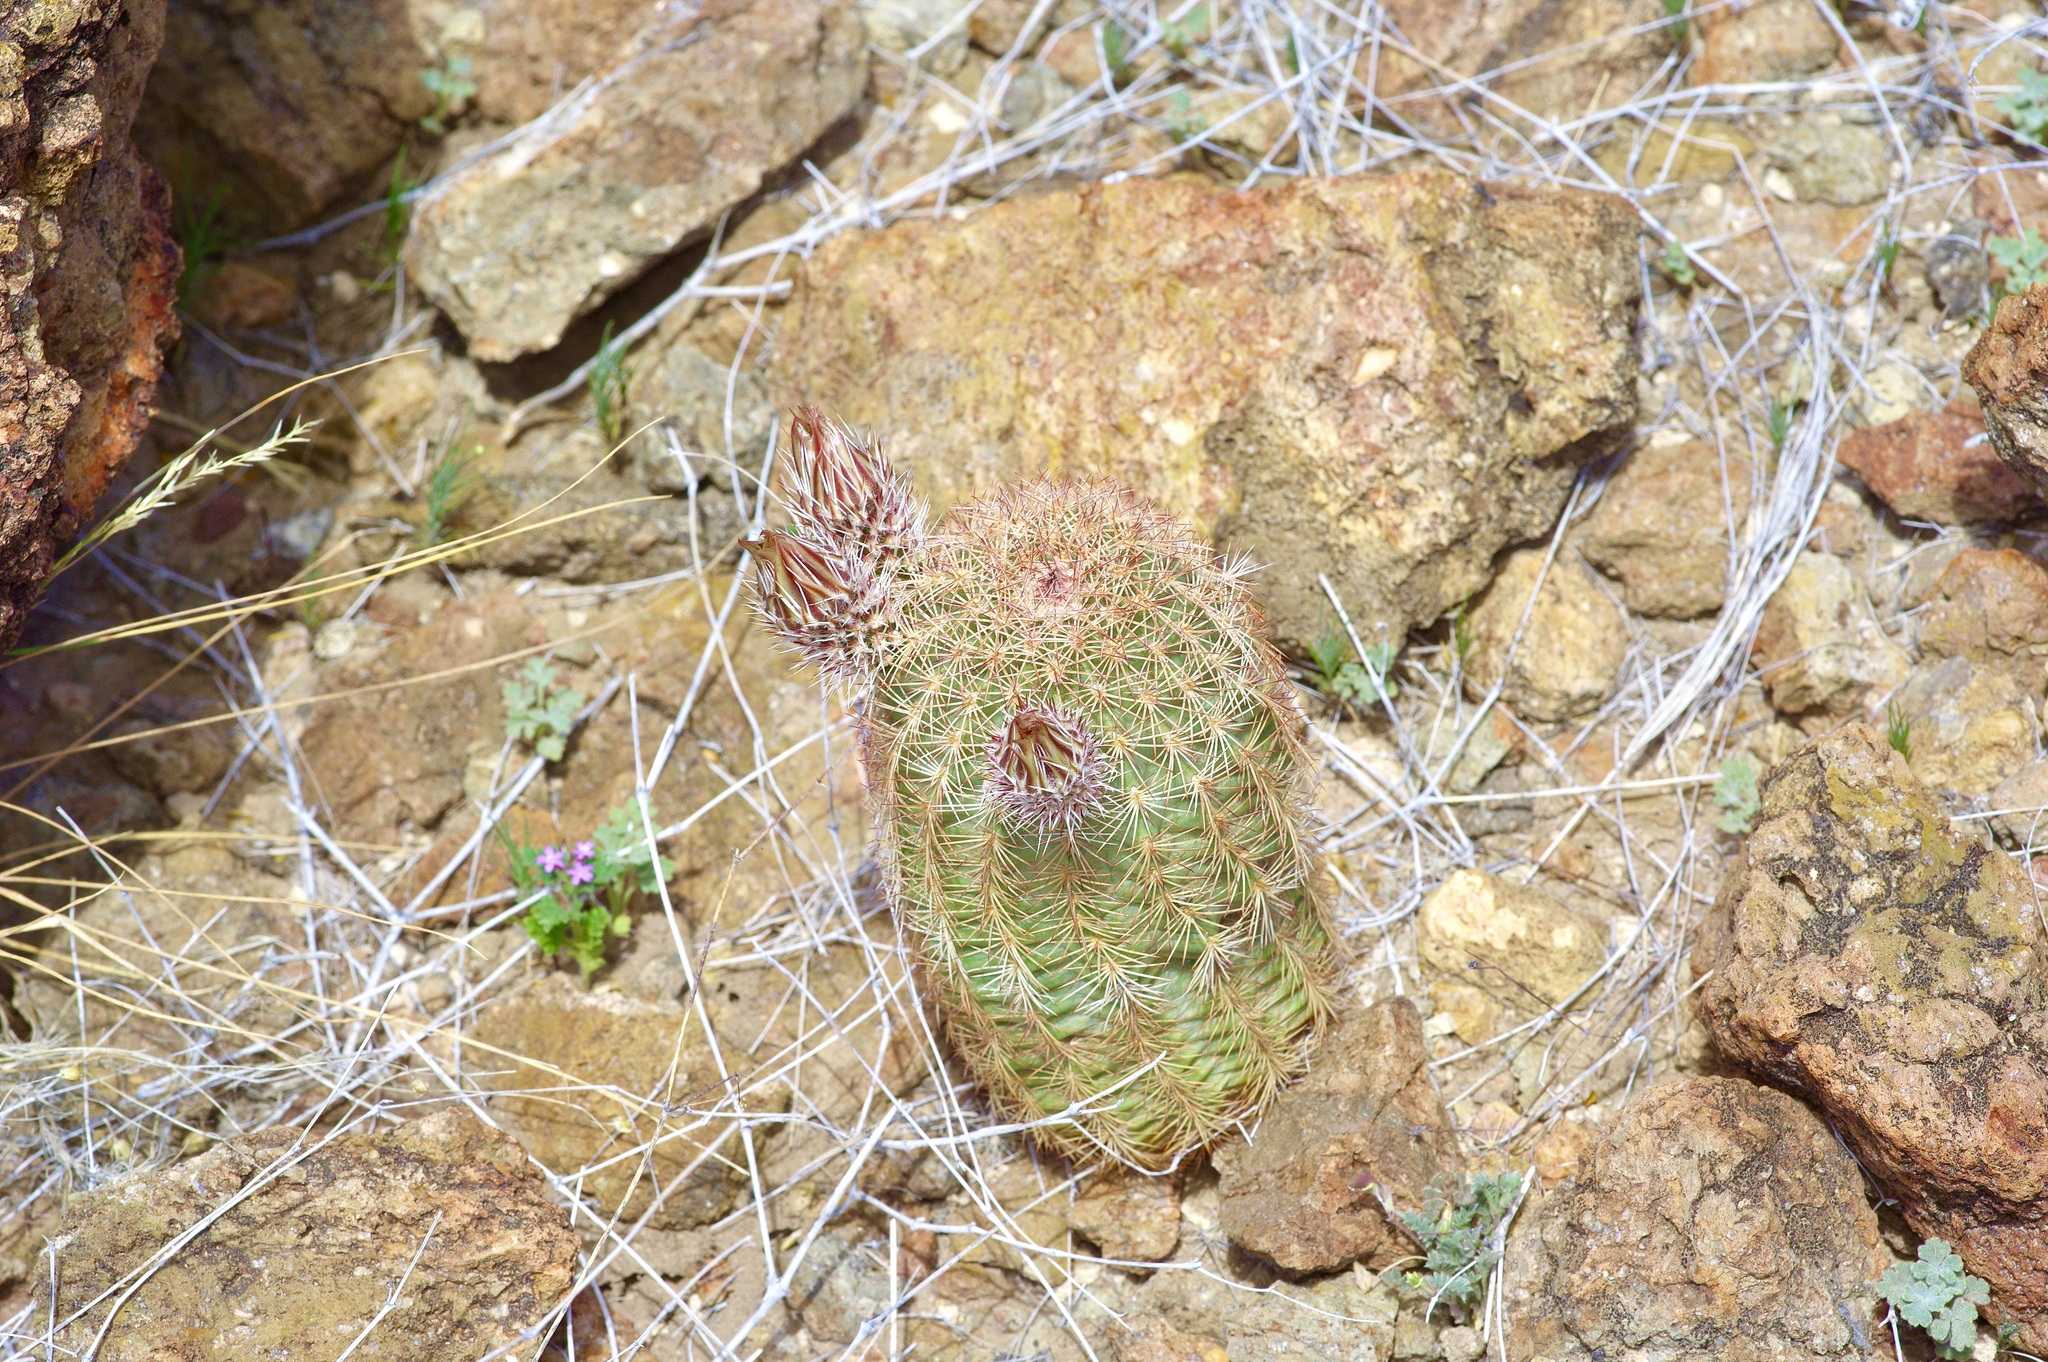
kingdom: Plantae
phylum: Tracheophyta
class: Magnoliopsida
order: Caryophyllales
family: Cactaceae
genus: Echinocereus
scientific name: Echinocereus
